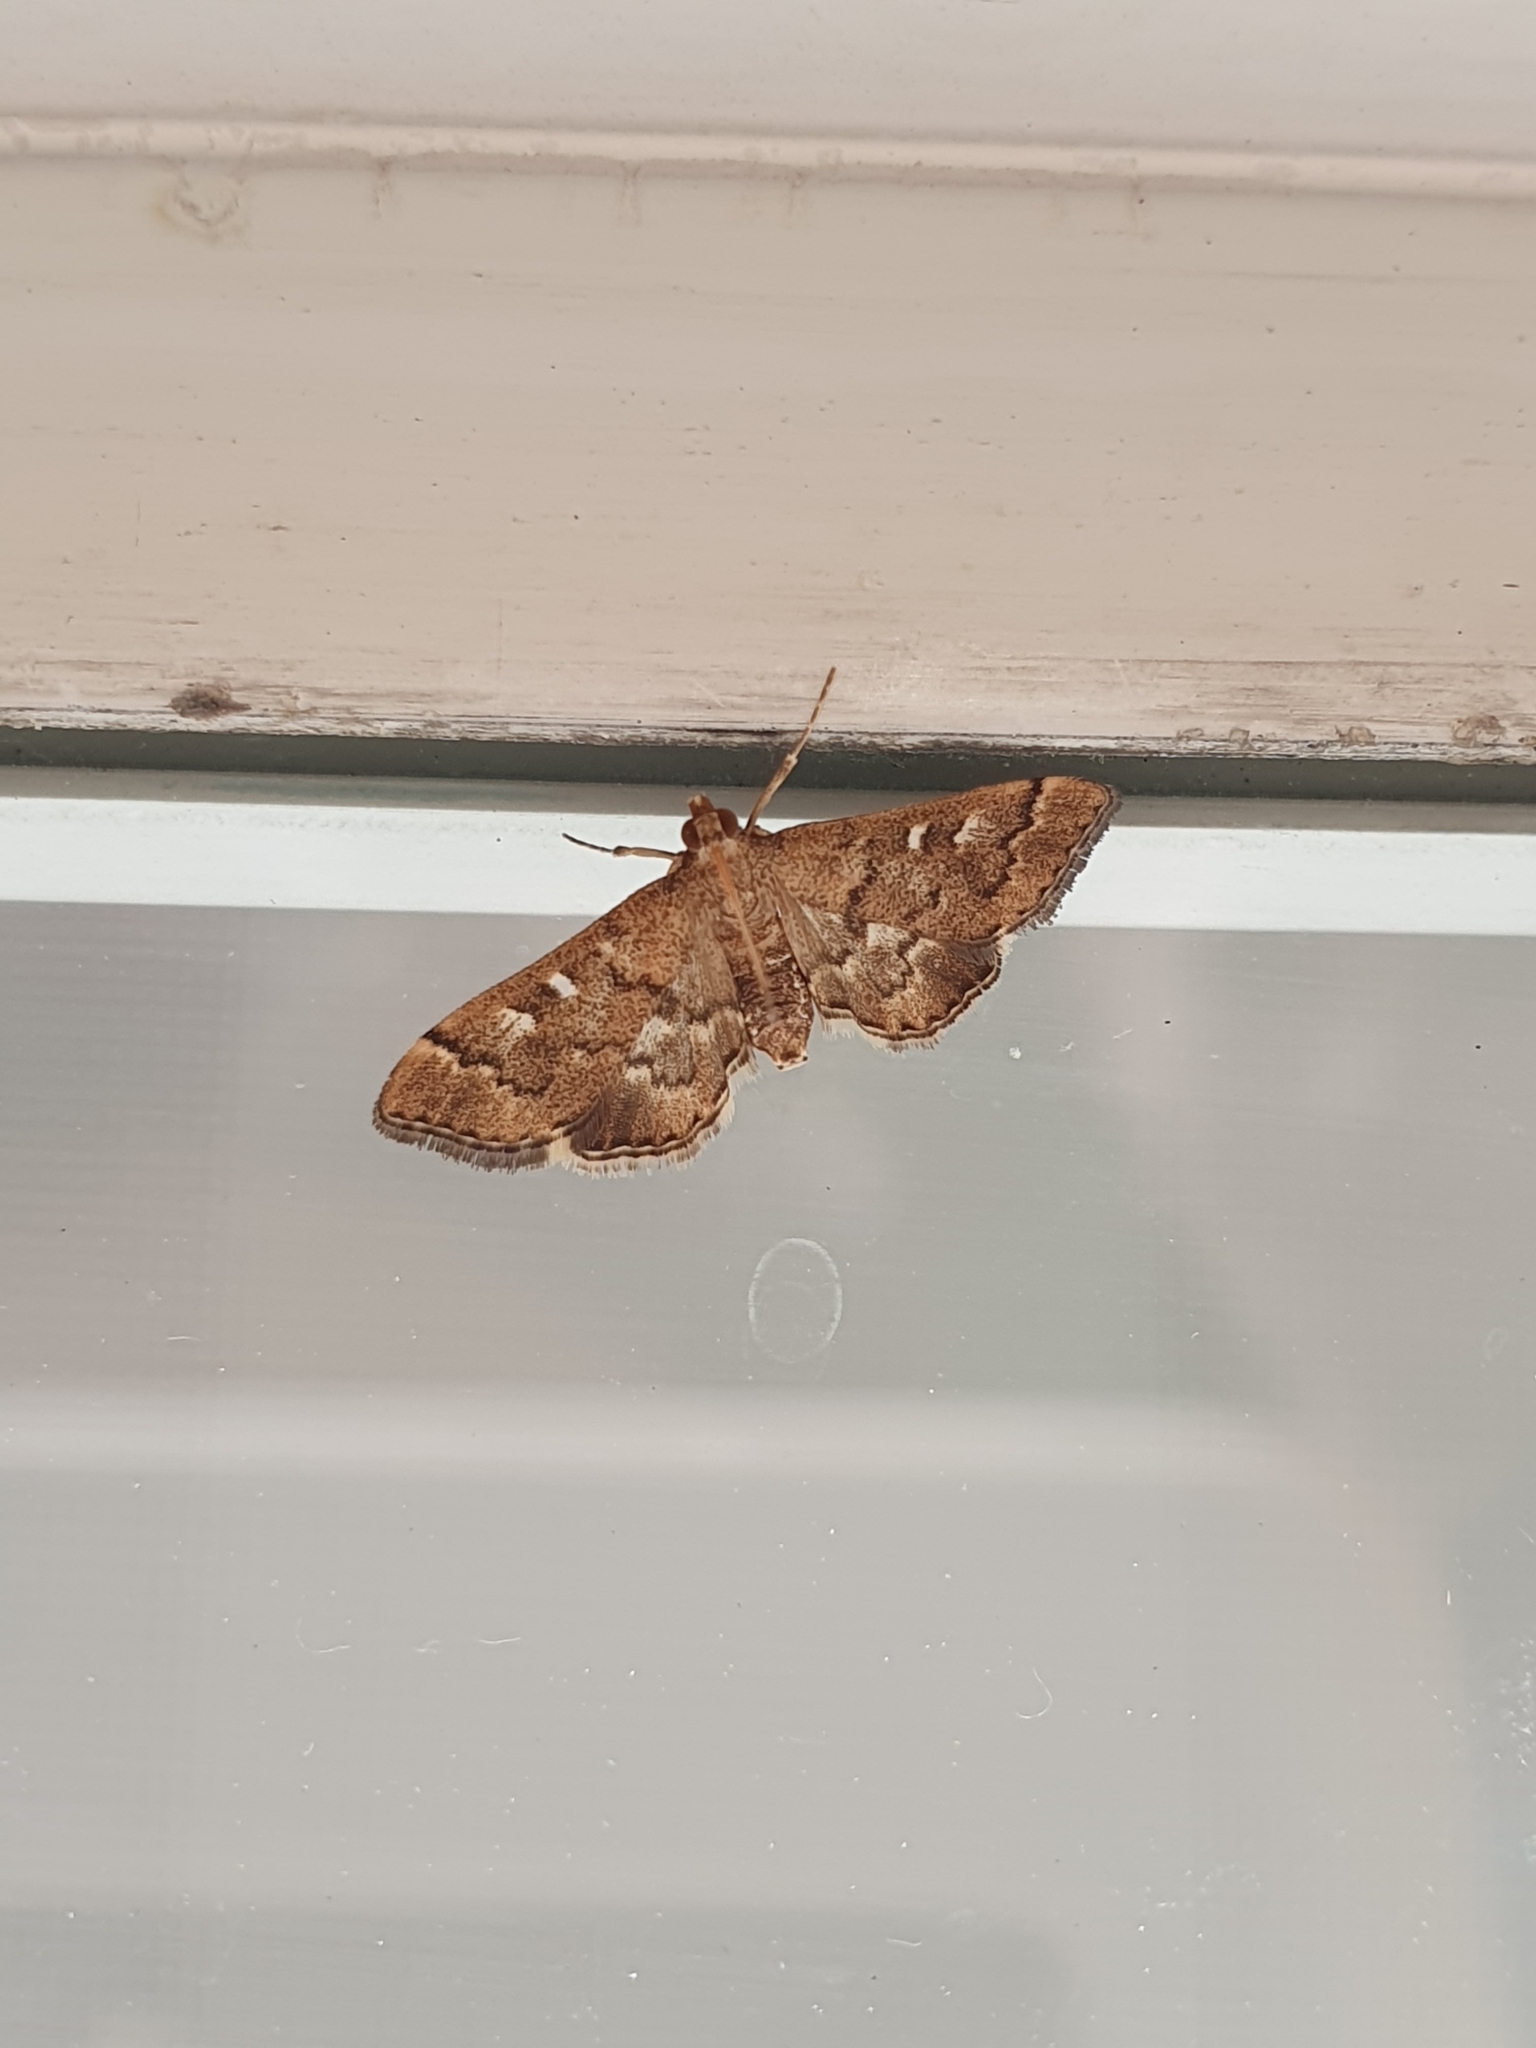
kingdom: Animalia
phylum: Arthropoda
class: Insecta
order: Lepidoptera
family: Crambidae
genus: Nacoleia
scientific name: Nacoleia rhoeoalis
